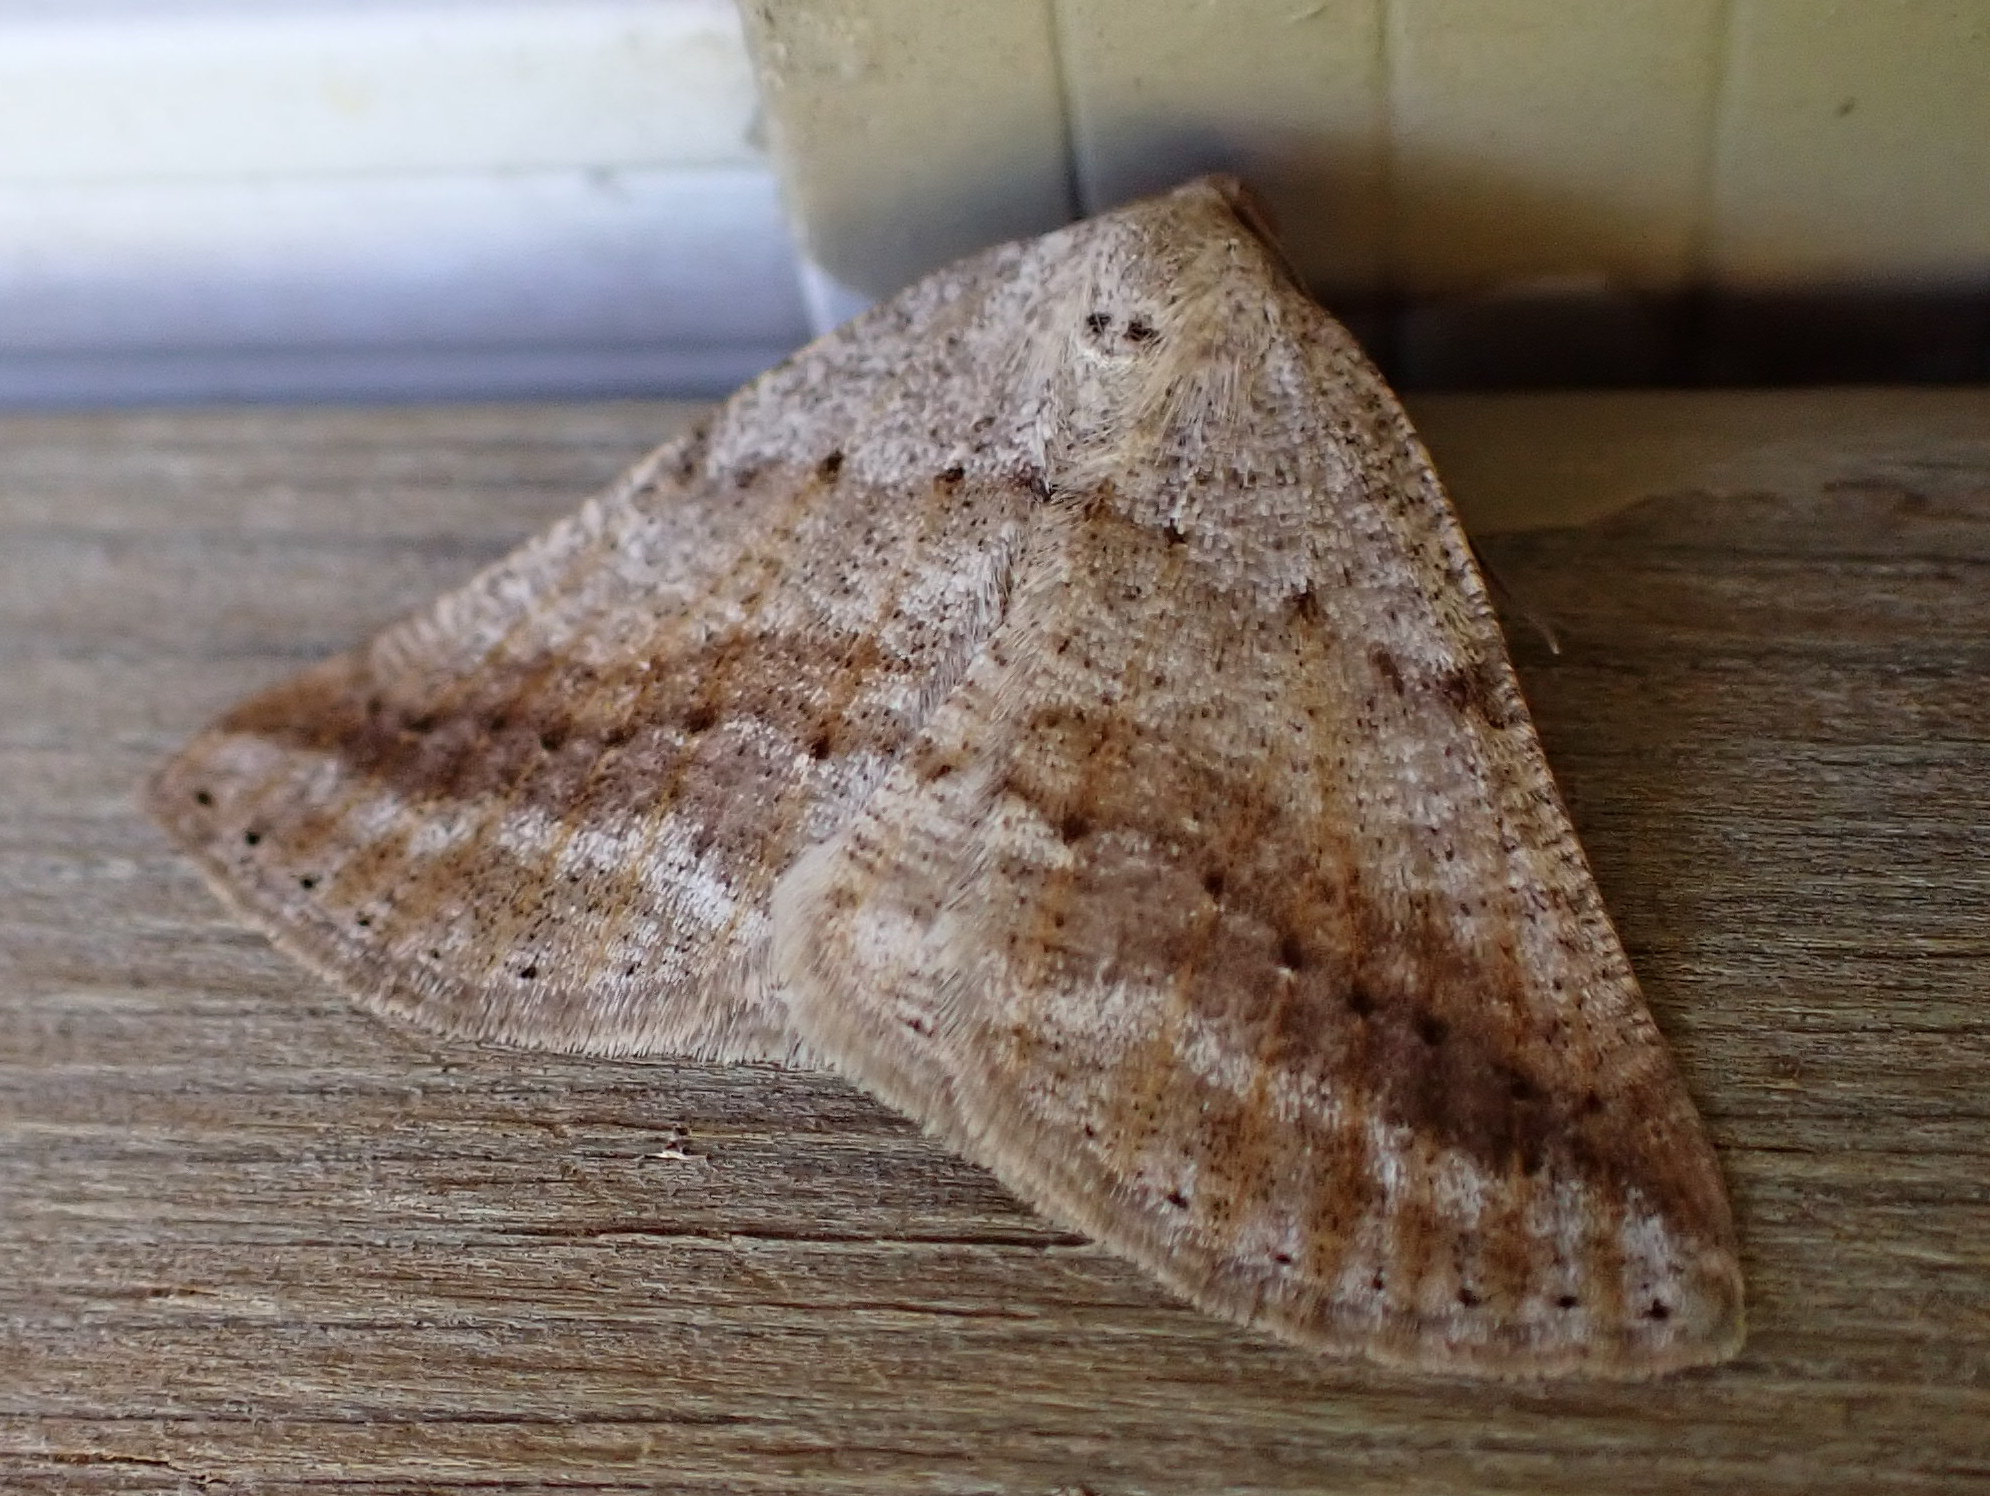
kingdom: Animalia
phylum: Arthropoda
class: Insecta
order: Lepidoptera
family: Geometridae
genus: Tacparia
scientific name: Tacparia detersata
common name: Pale alder moth
